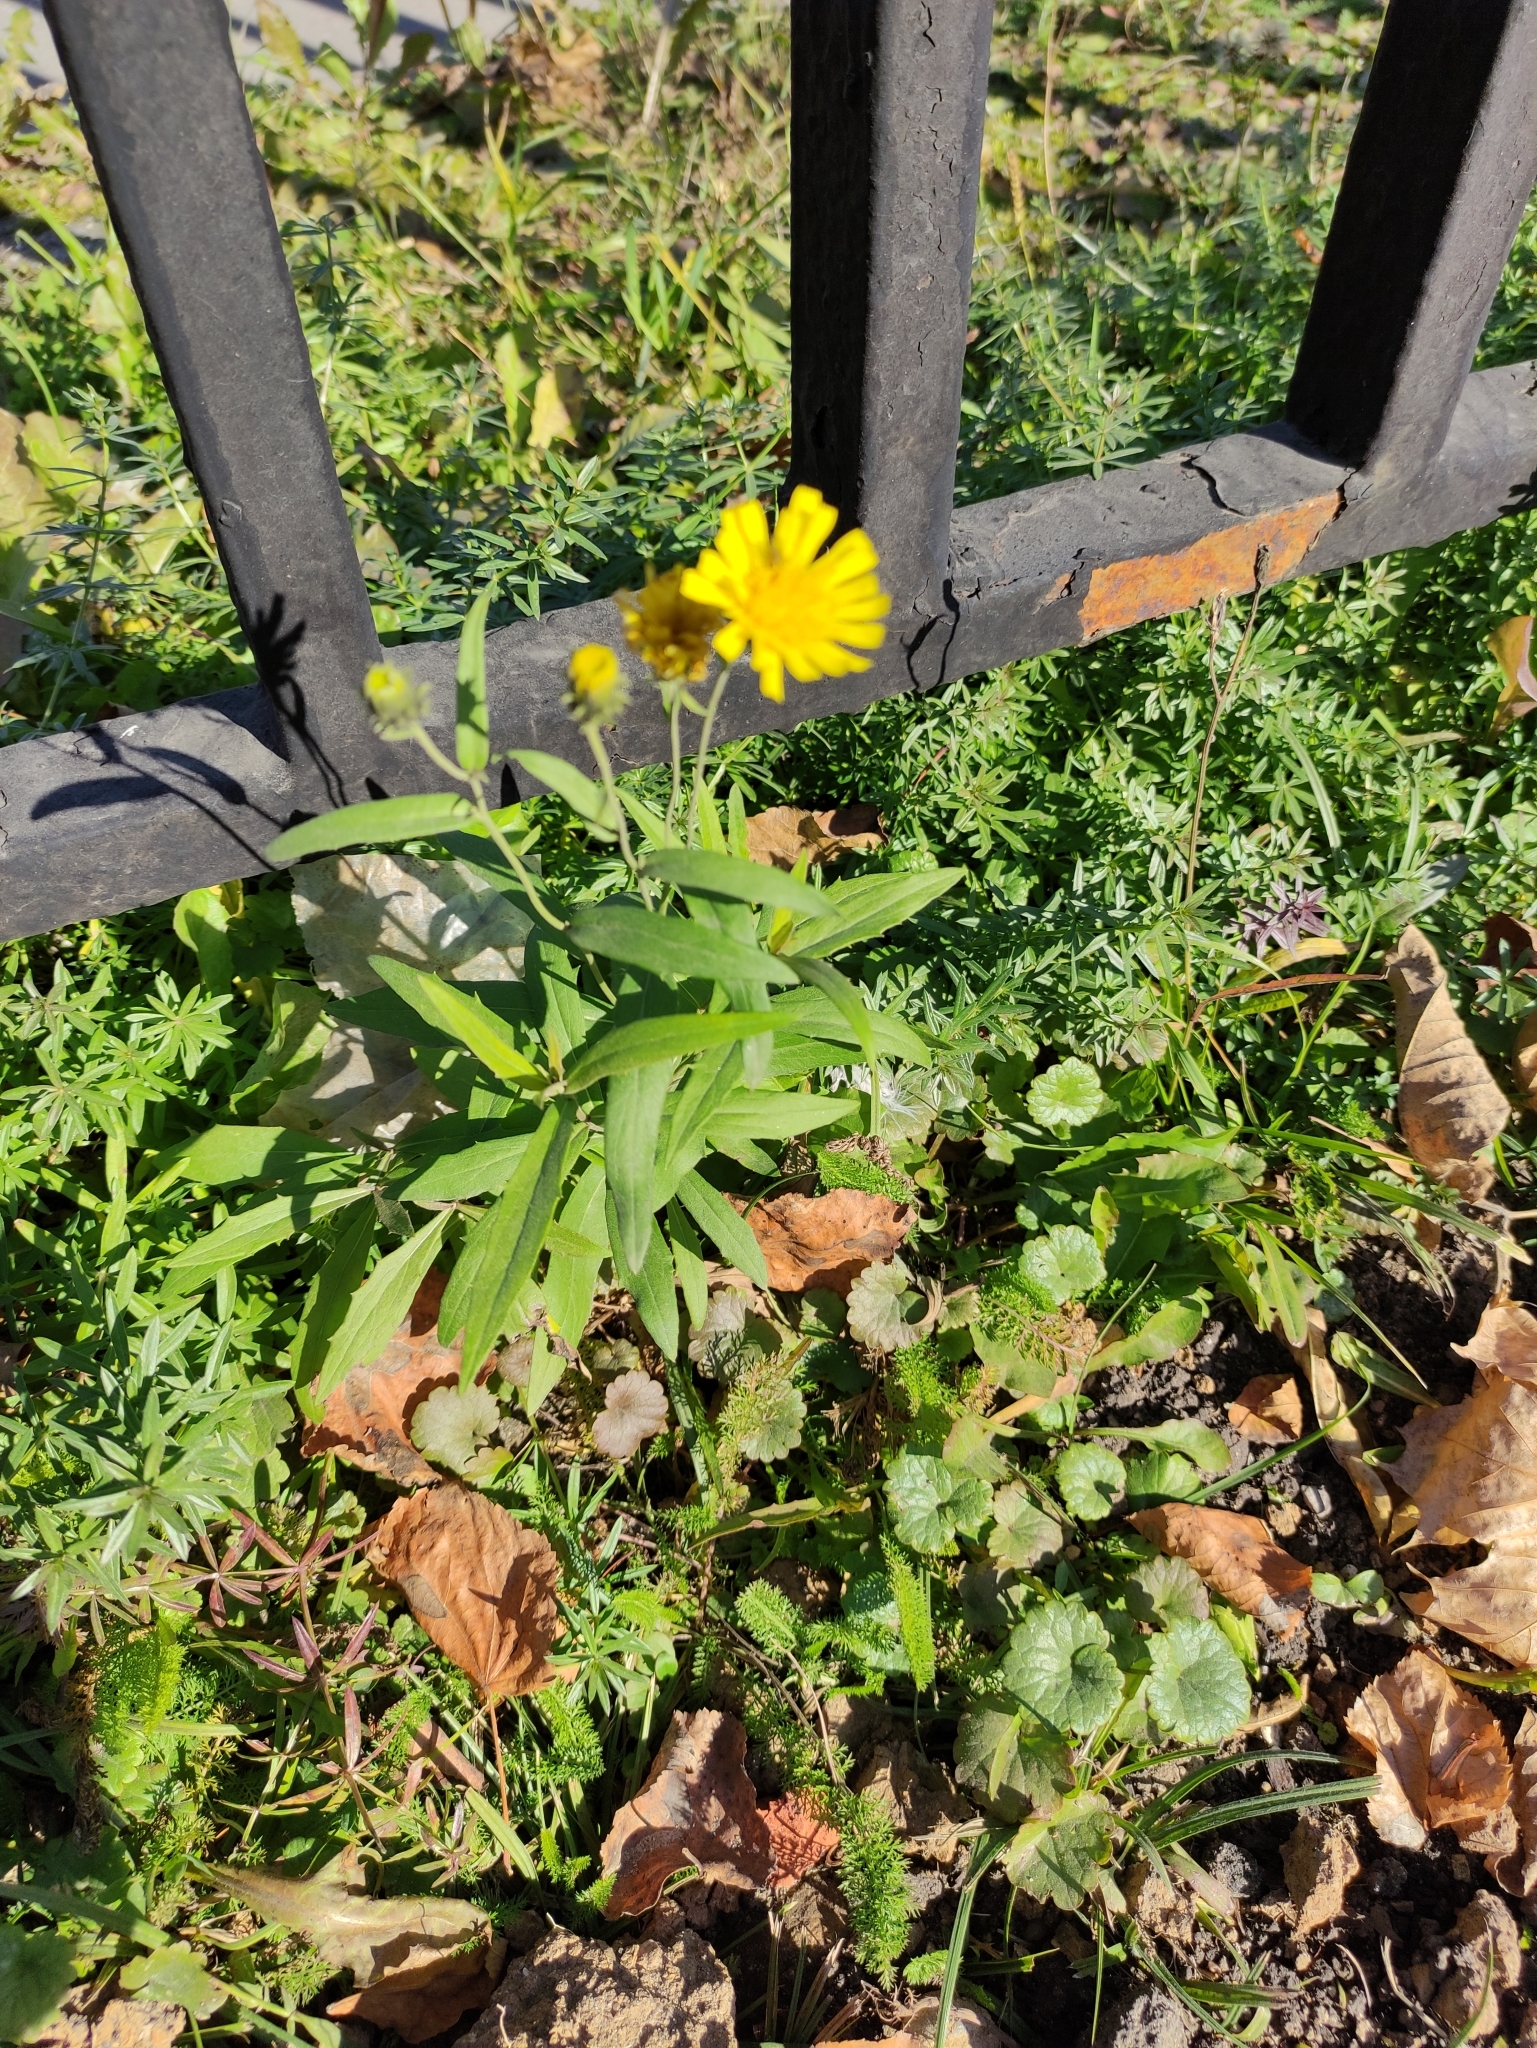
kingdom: Plantae
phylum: Tracheophyta
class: Magnoliopsida
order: Asterales
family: Asteraceae
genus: Hieracium
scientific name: Hieracium umbellatum
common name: Northern hawkweed
